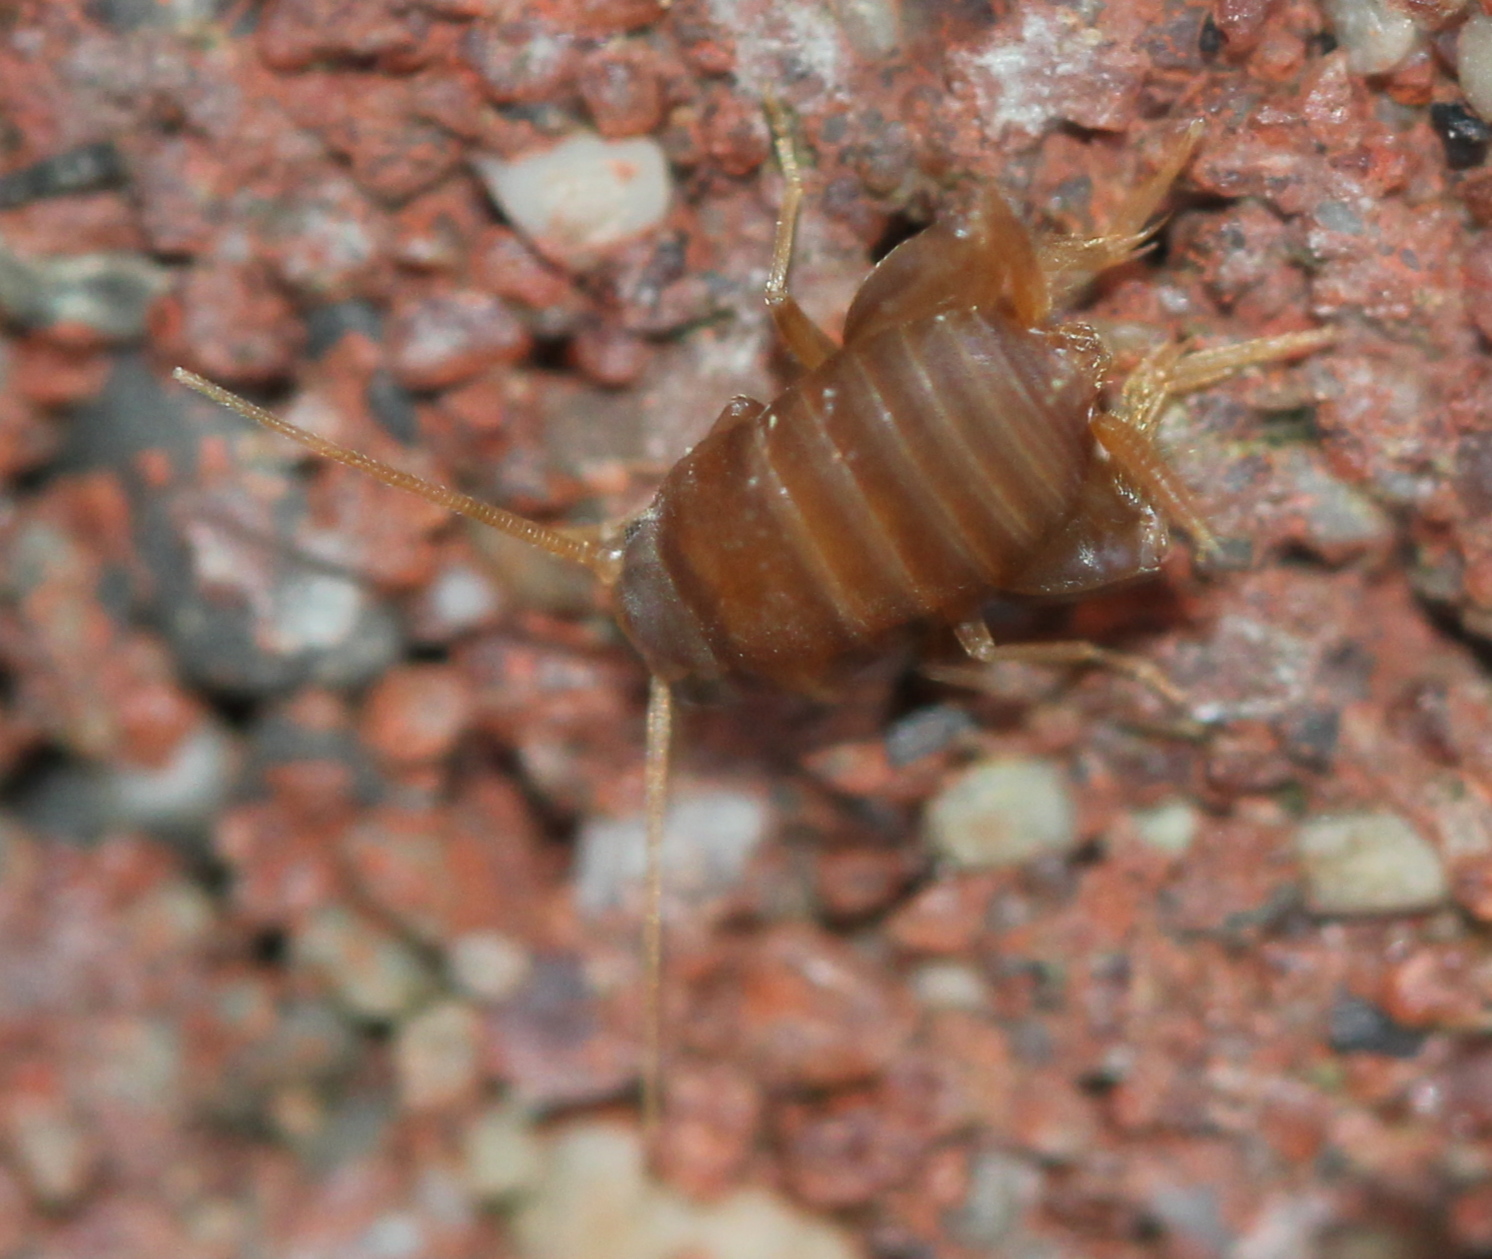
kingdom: Animalia
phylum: Arthropoda
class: Insecta
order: Orthoptera
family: Myrmecophilidae
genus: Myrmecophilus
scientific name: Myrmecophilus pergandei
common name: Eastern ant cricket
